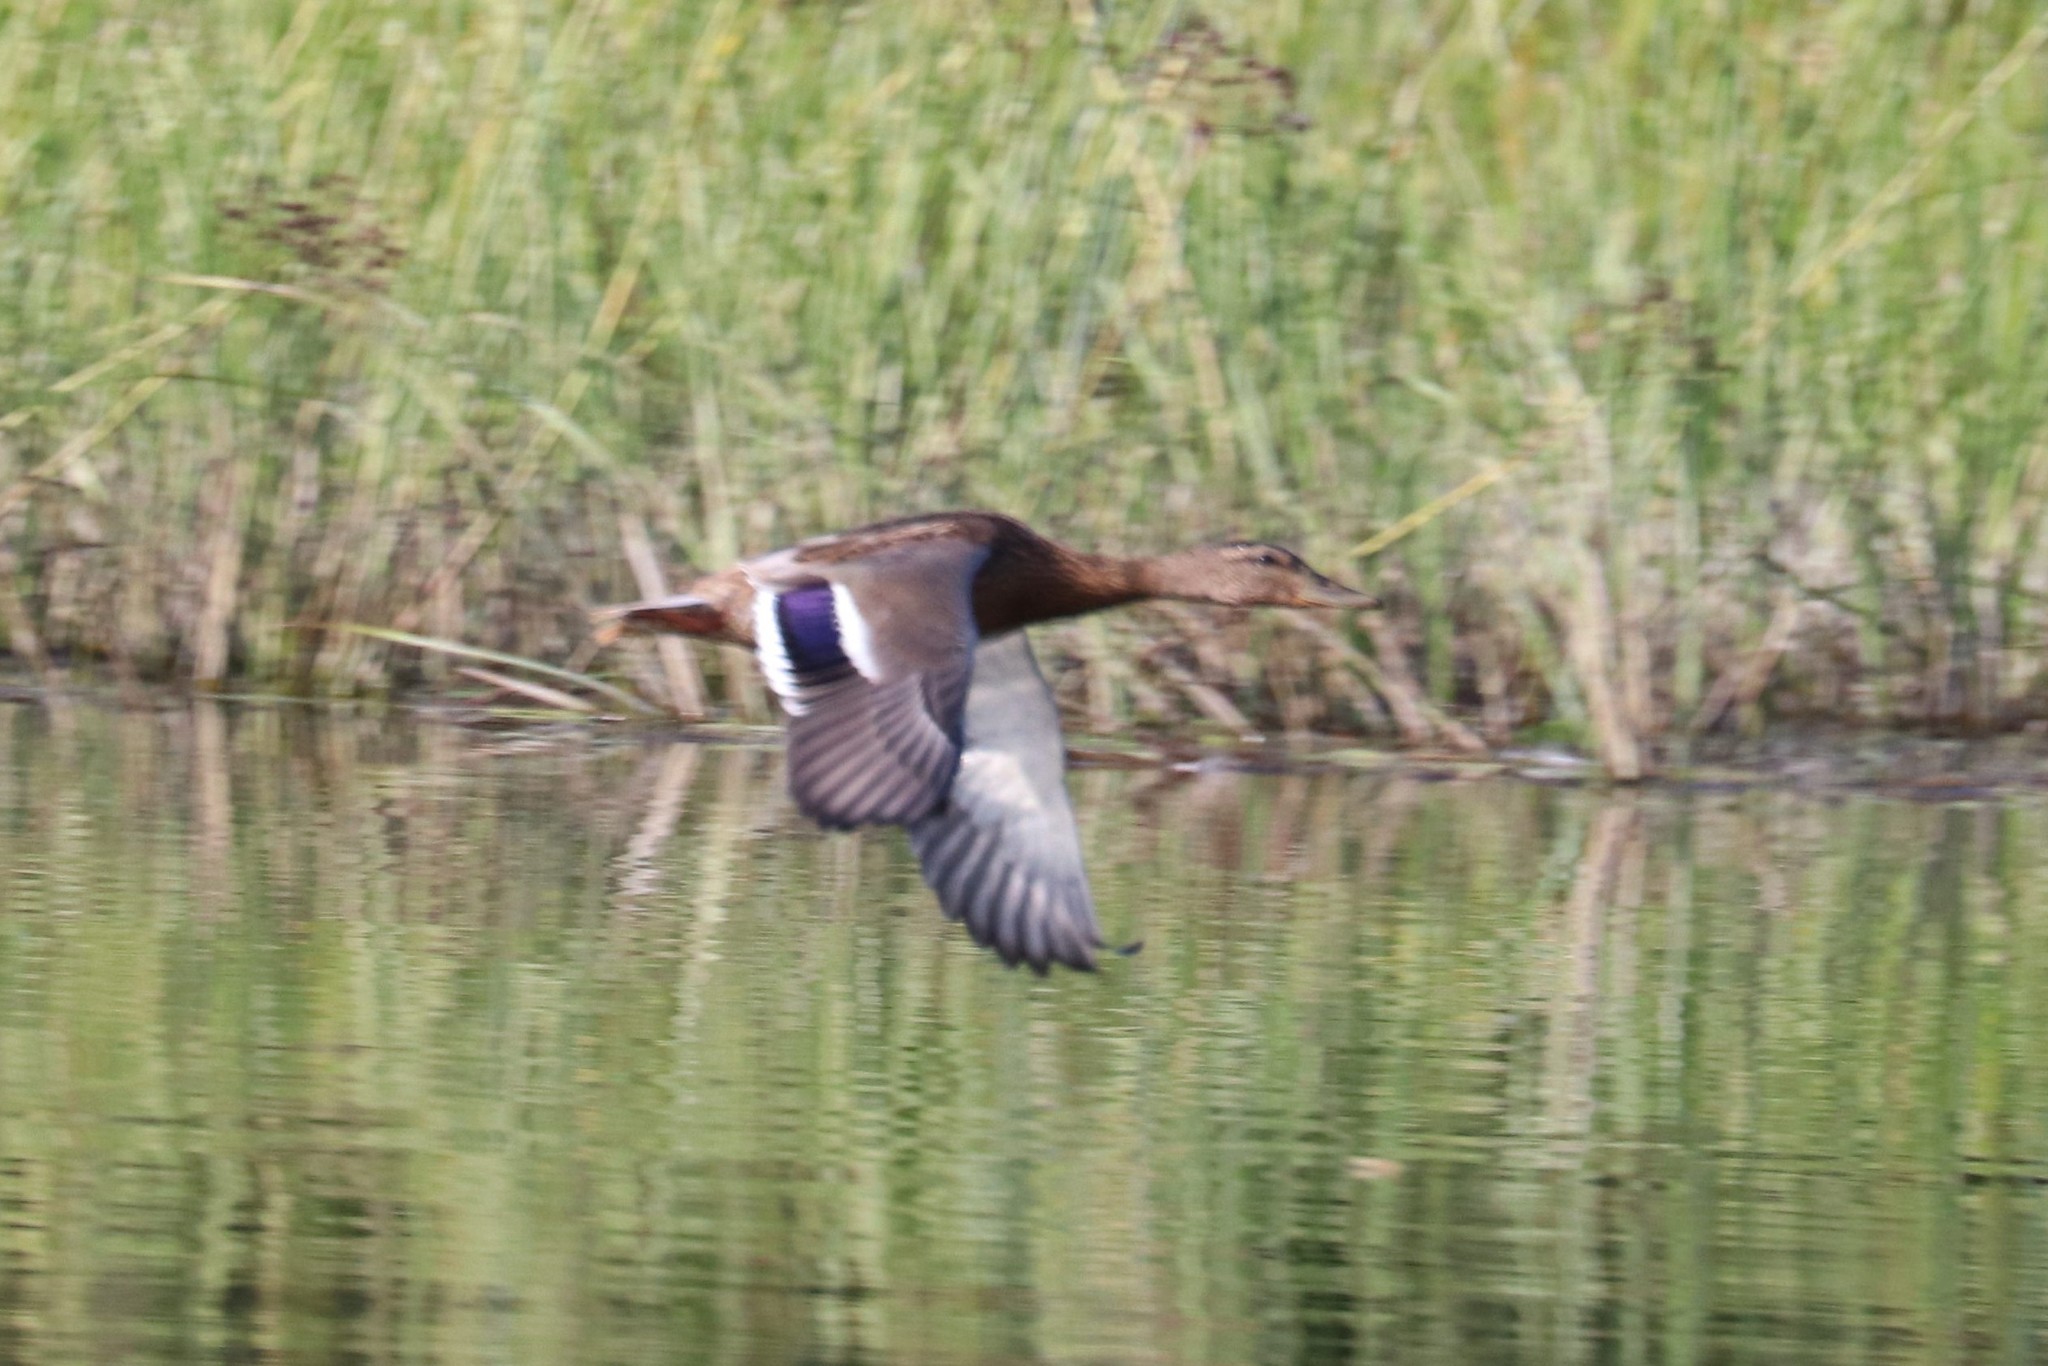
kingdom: Animalia
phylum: Chordata
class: Aves
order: Anseriformes
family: Anatidae
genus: Anas
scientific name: Anas platyrhynchos
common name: Mallard
